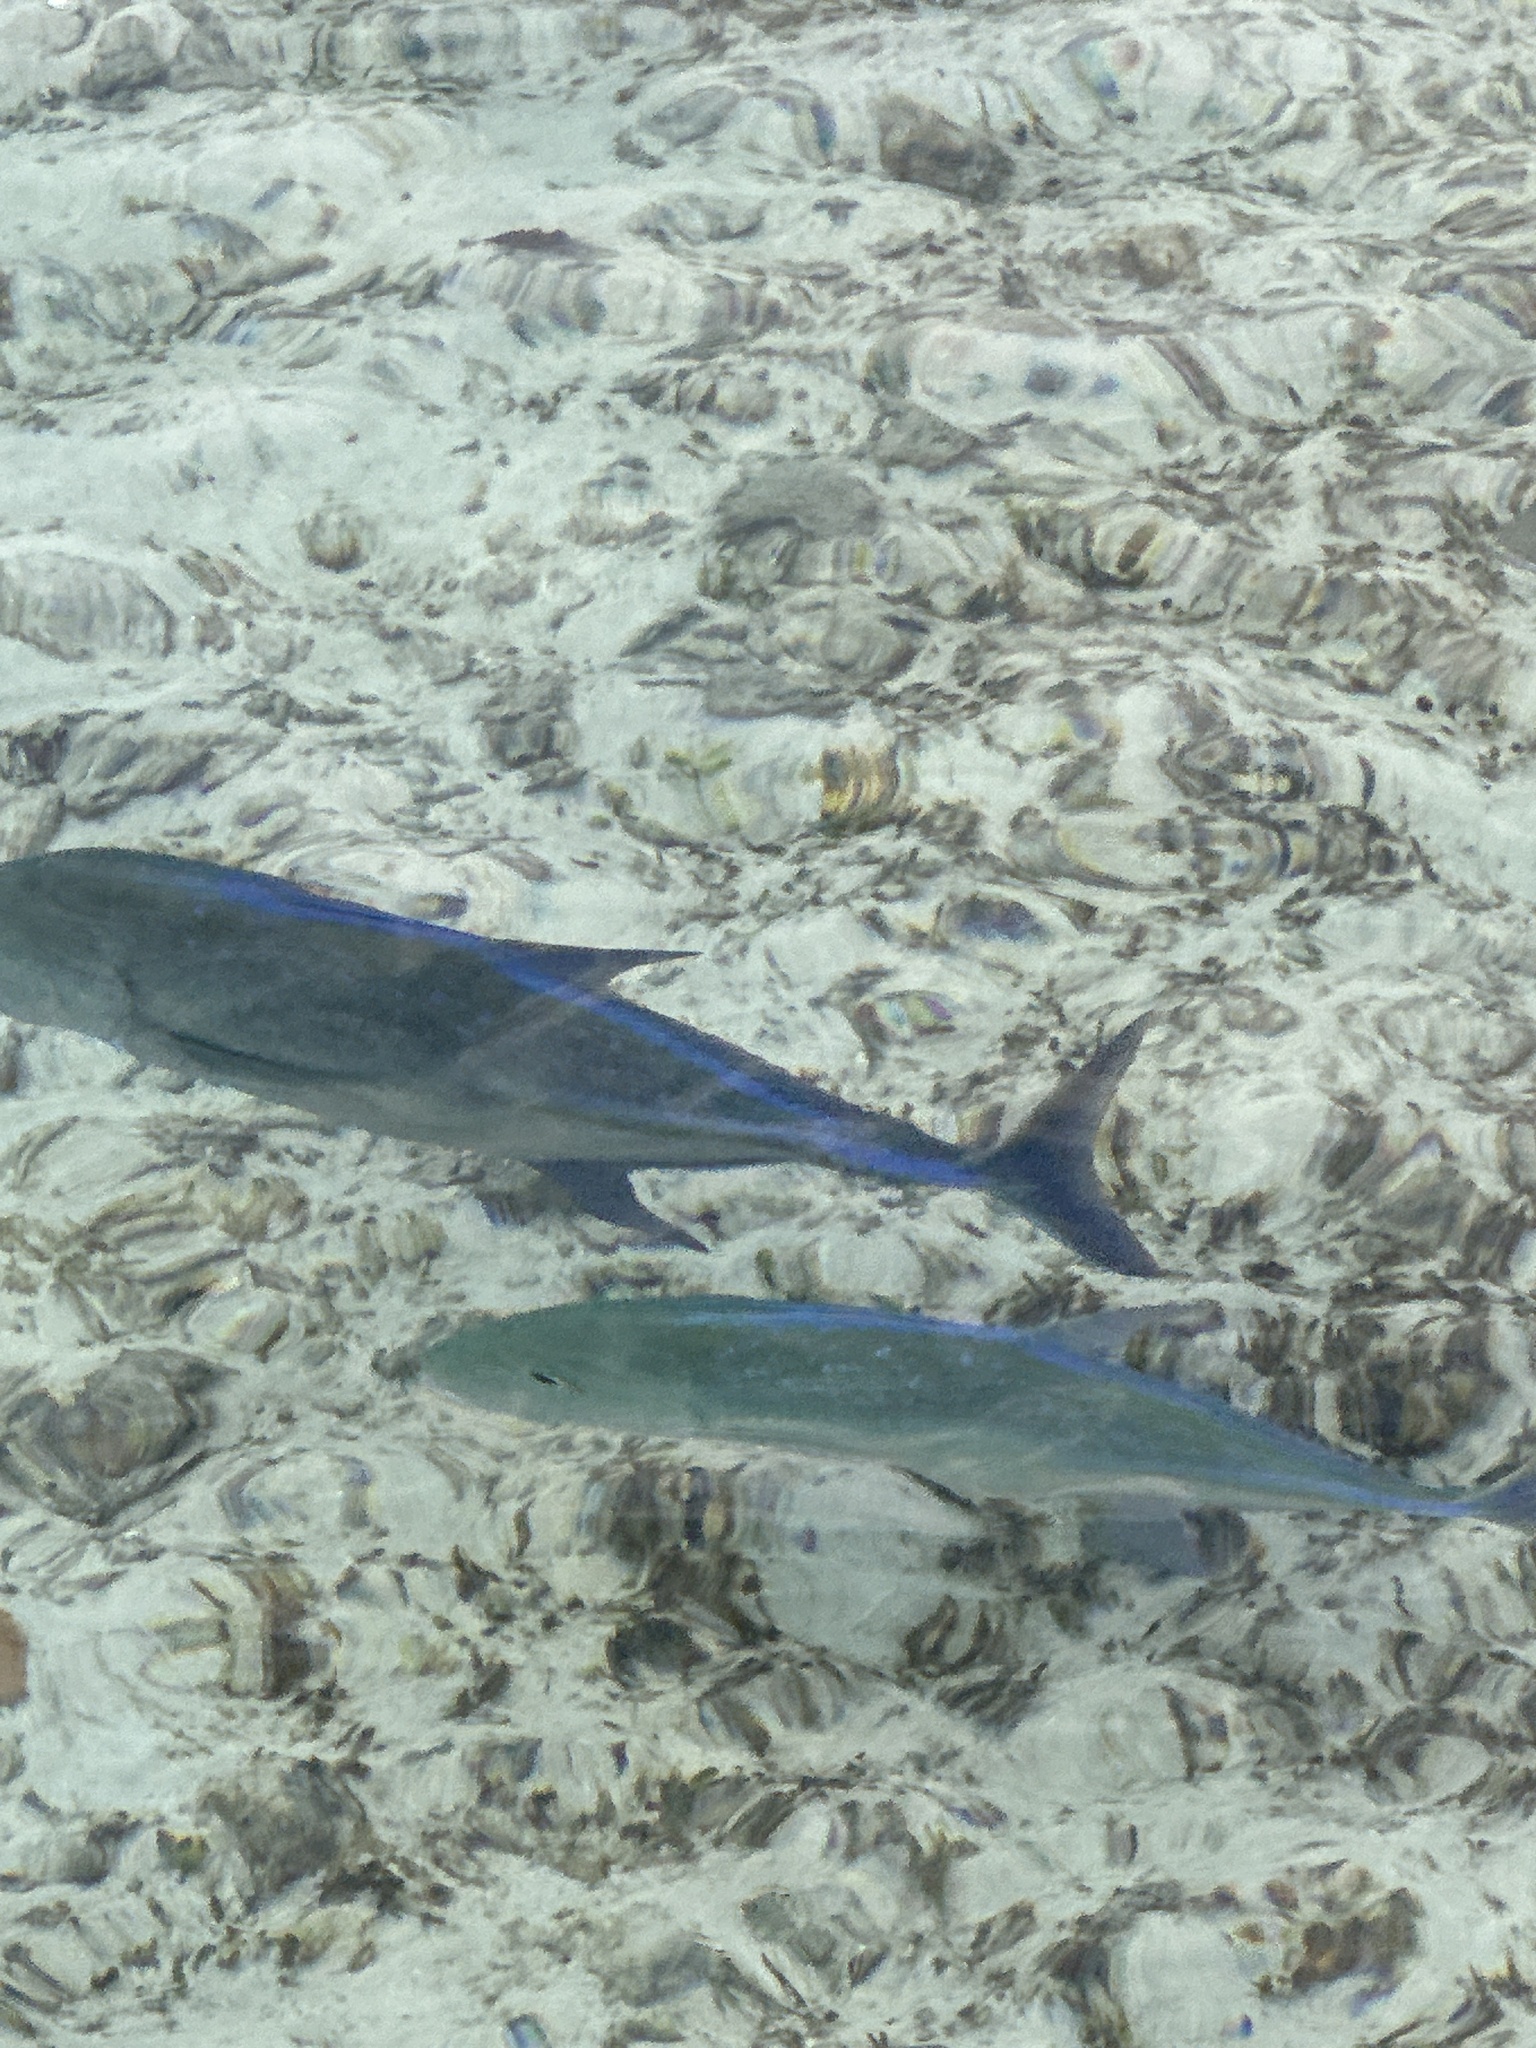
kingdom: Animalia
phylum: Chordata
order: Perciformes
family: Carangidae
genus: Caranx
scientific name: Caranx melampygus
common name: Bluefin trevally
